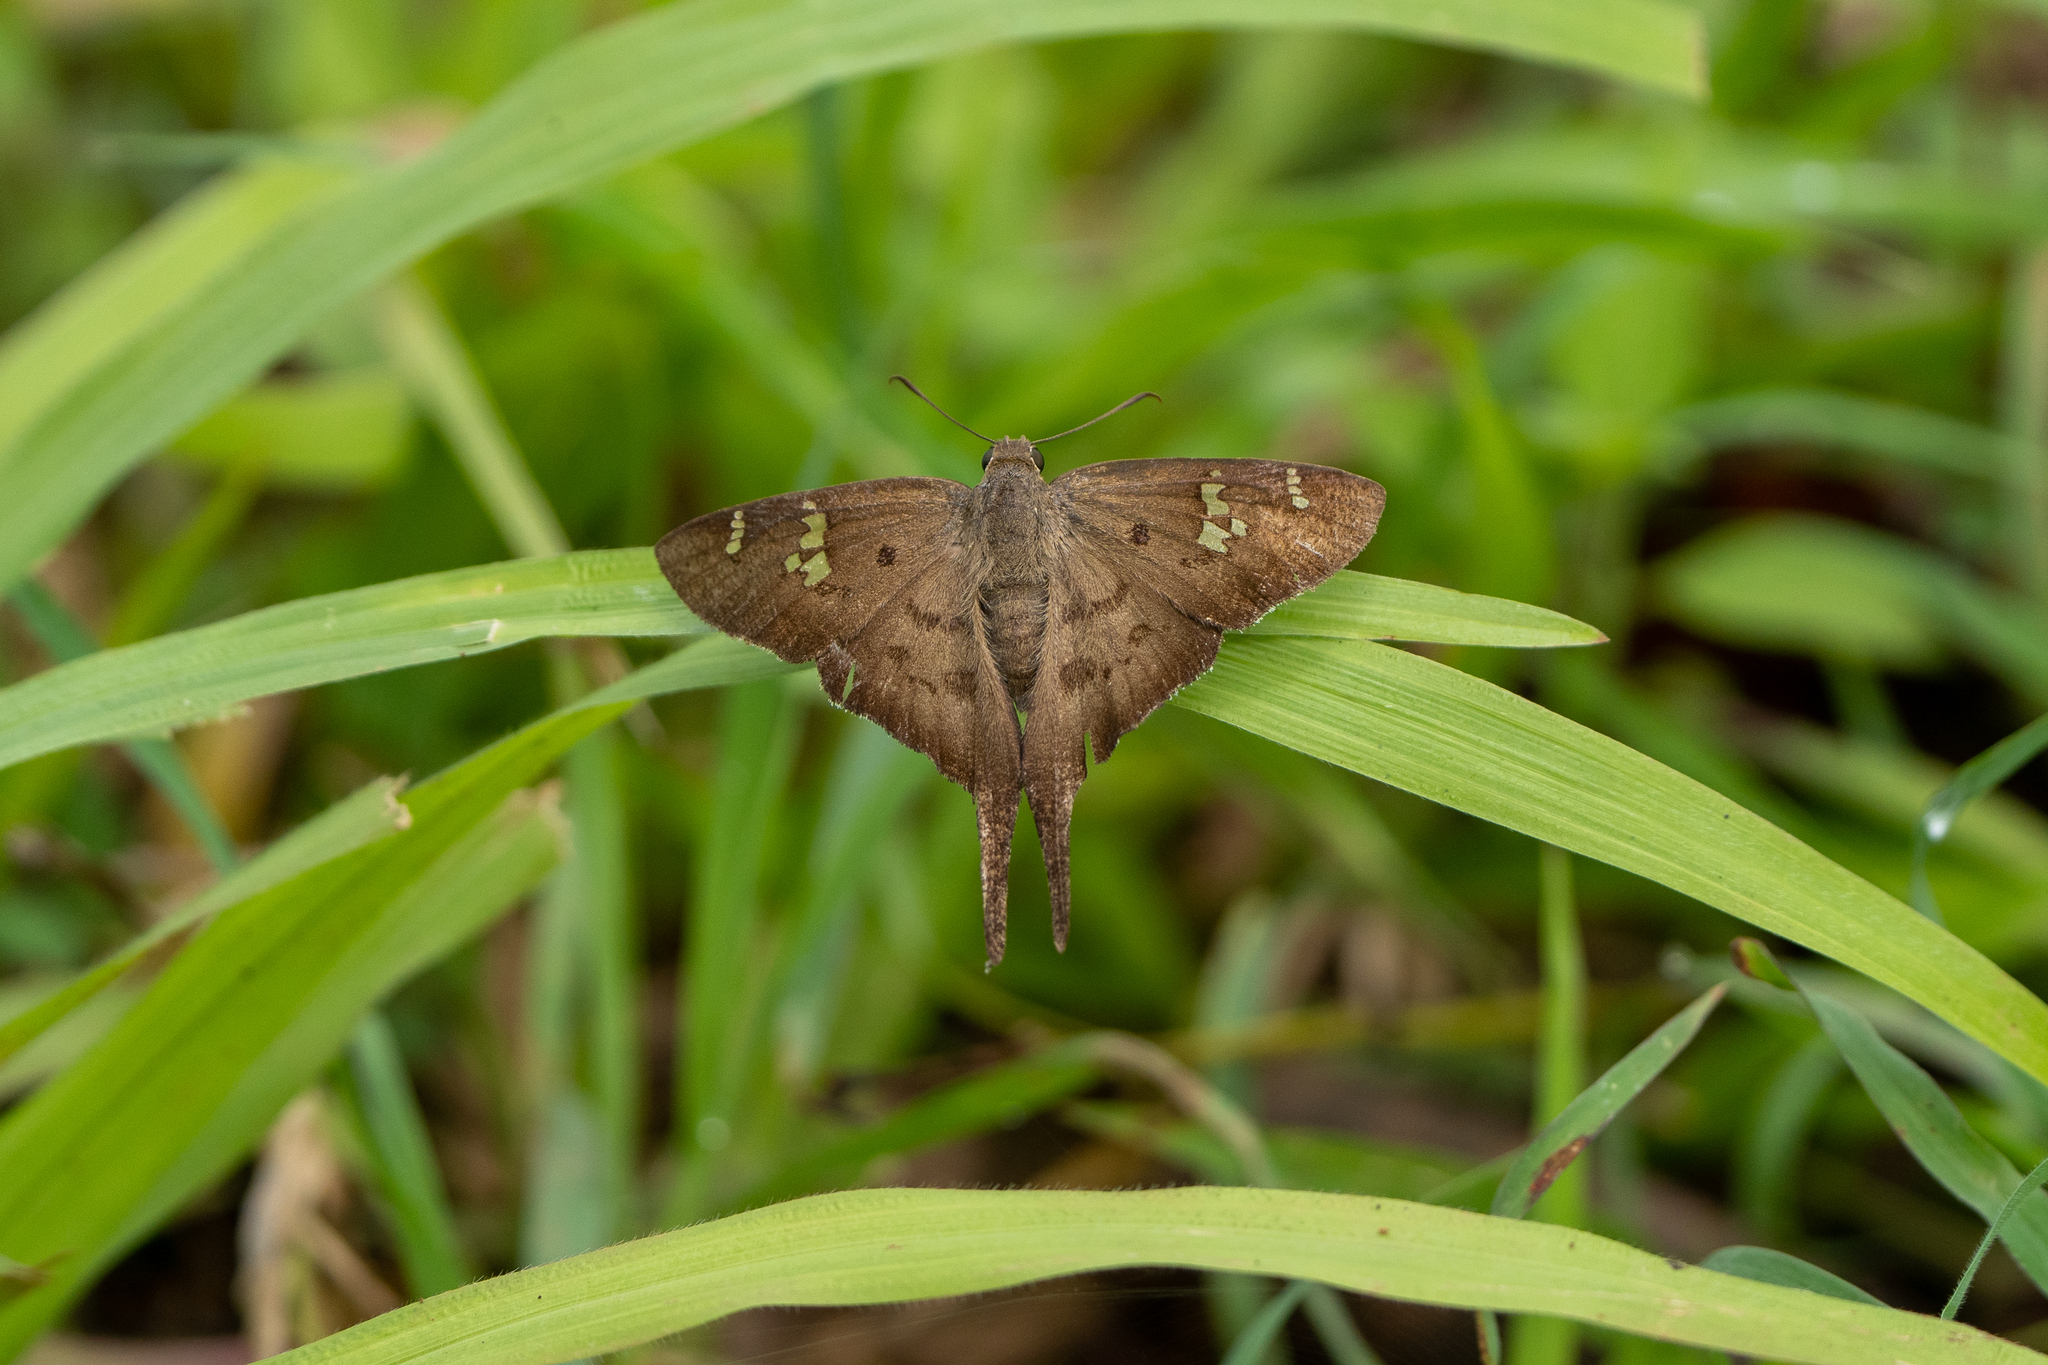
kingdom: Animalia
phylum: Arthropoda
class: Insecta
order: Lepidoptera
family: Hesperiidae
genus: Ectomis
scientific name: Ectomis
